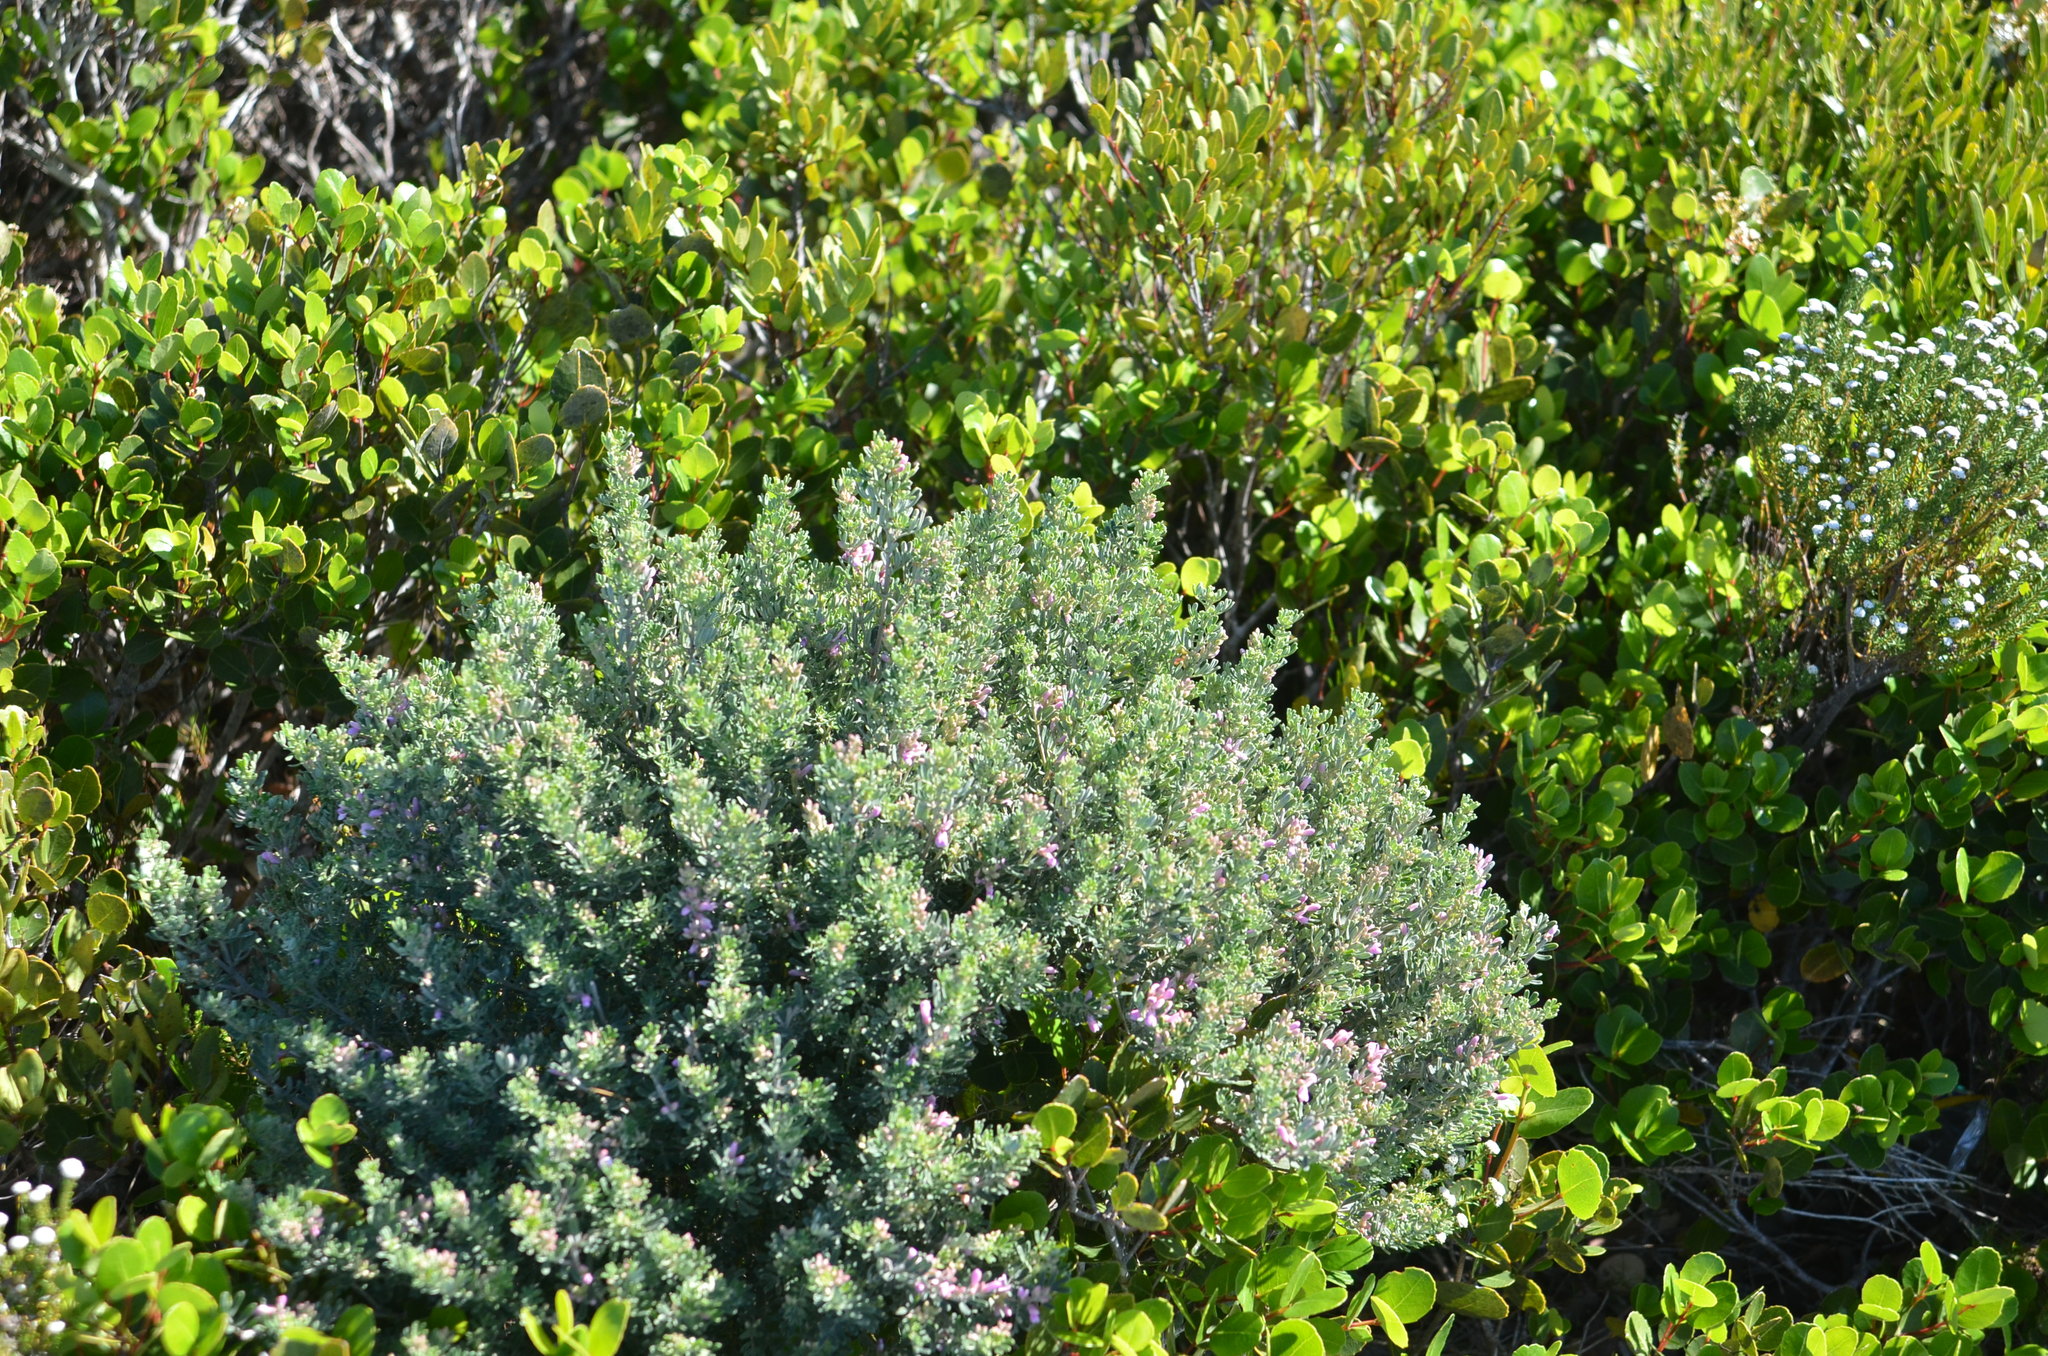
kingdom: Plantae
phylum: Tracheophyta
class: Magnoliopsida
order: Fabales
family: Fabaceae
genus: Indigofera
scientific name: Indigofera brachystachya
